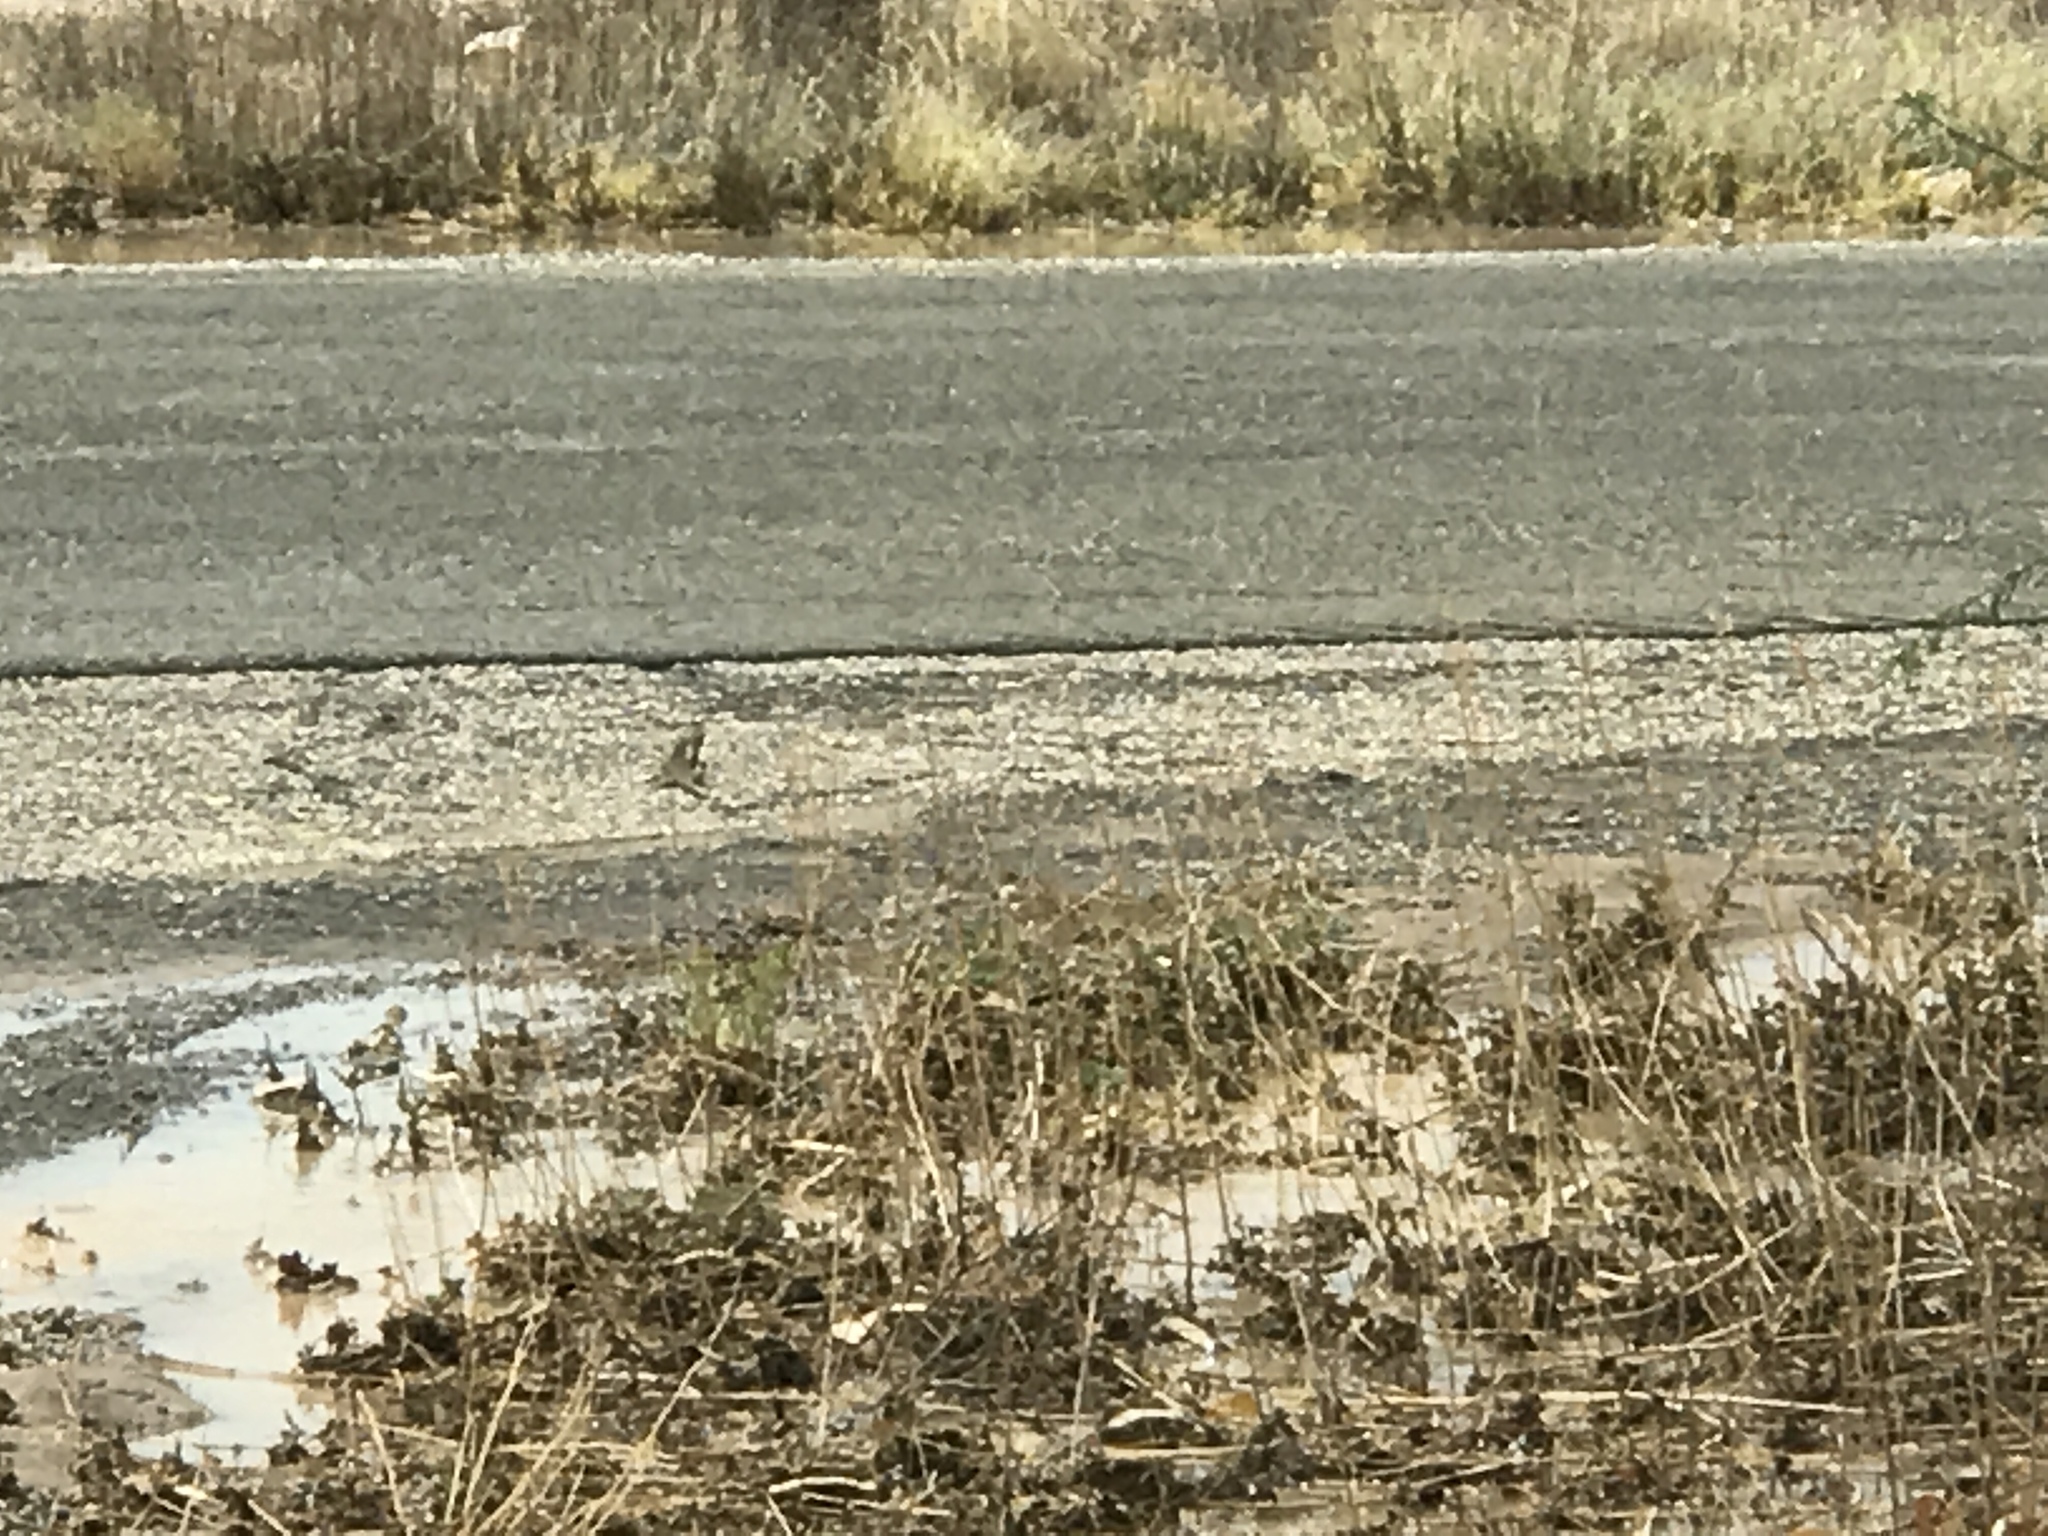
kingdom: Animalia
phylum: Chordata
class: Squamata
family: Phrynosomatidae
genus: Sceloporus
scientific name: Sceloporus magister
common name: Desert spiny lizard
